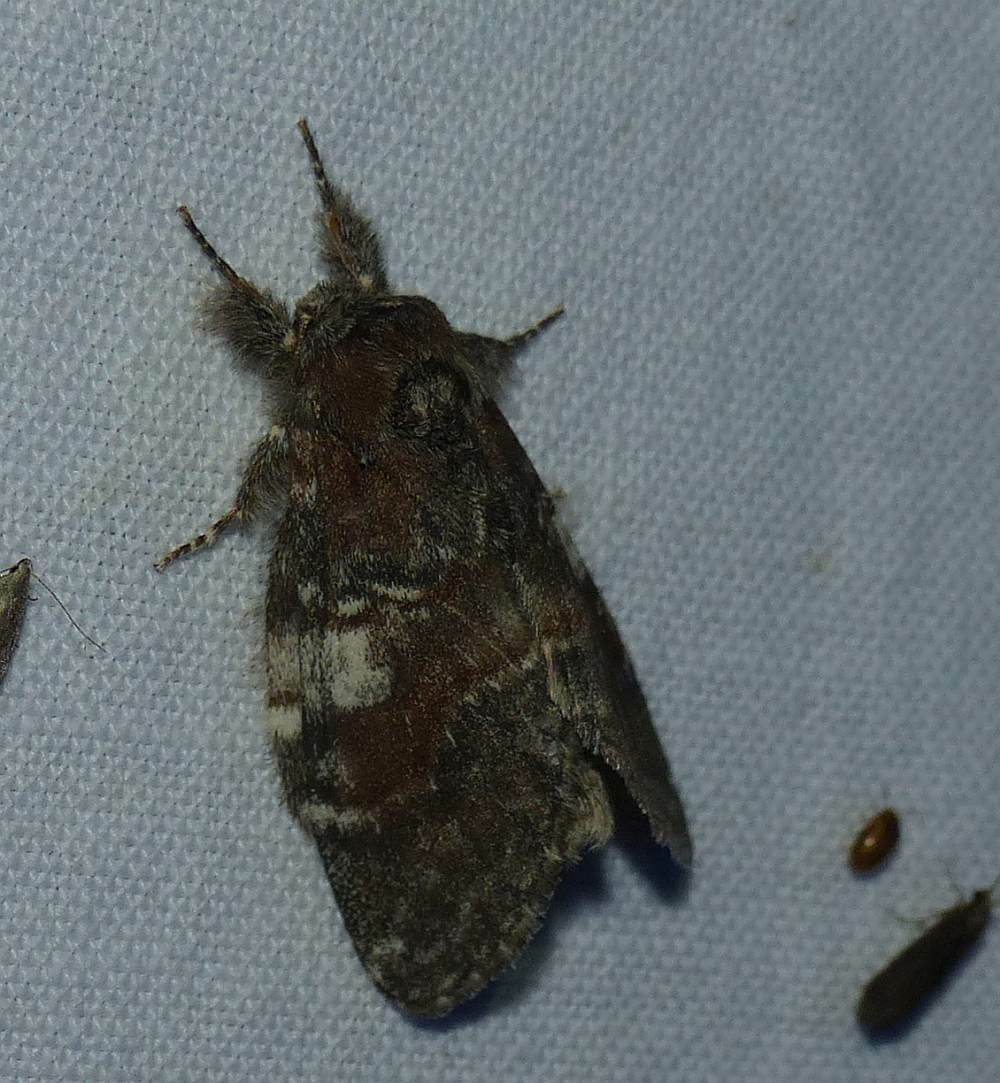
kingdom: Animalia
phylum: Arthropoda
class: Insecta
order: Lepidoptera
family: Notodontidae
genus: Peridea
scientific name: Peridea ferruginea
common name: Chocolate prominent
